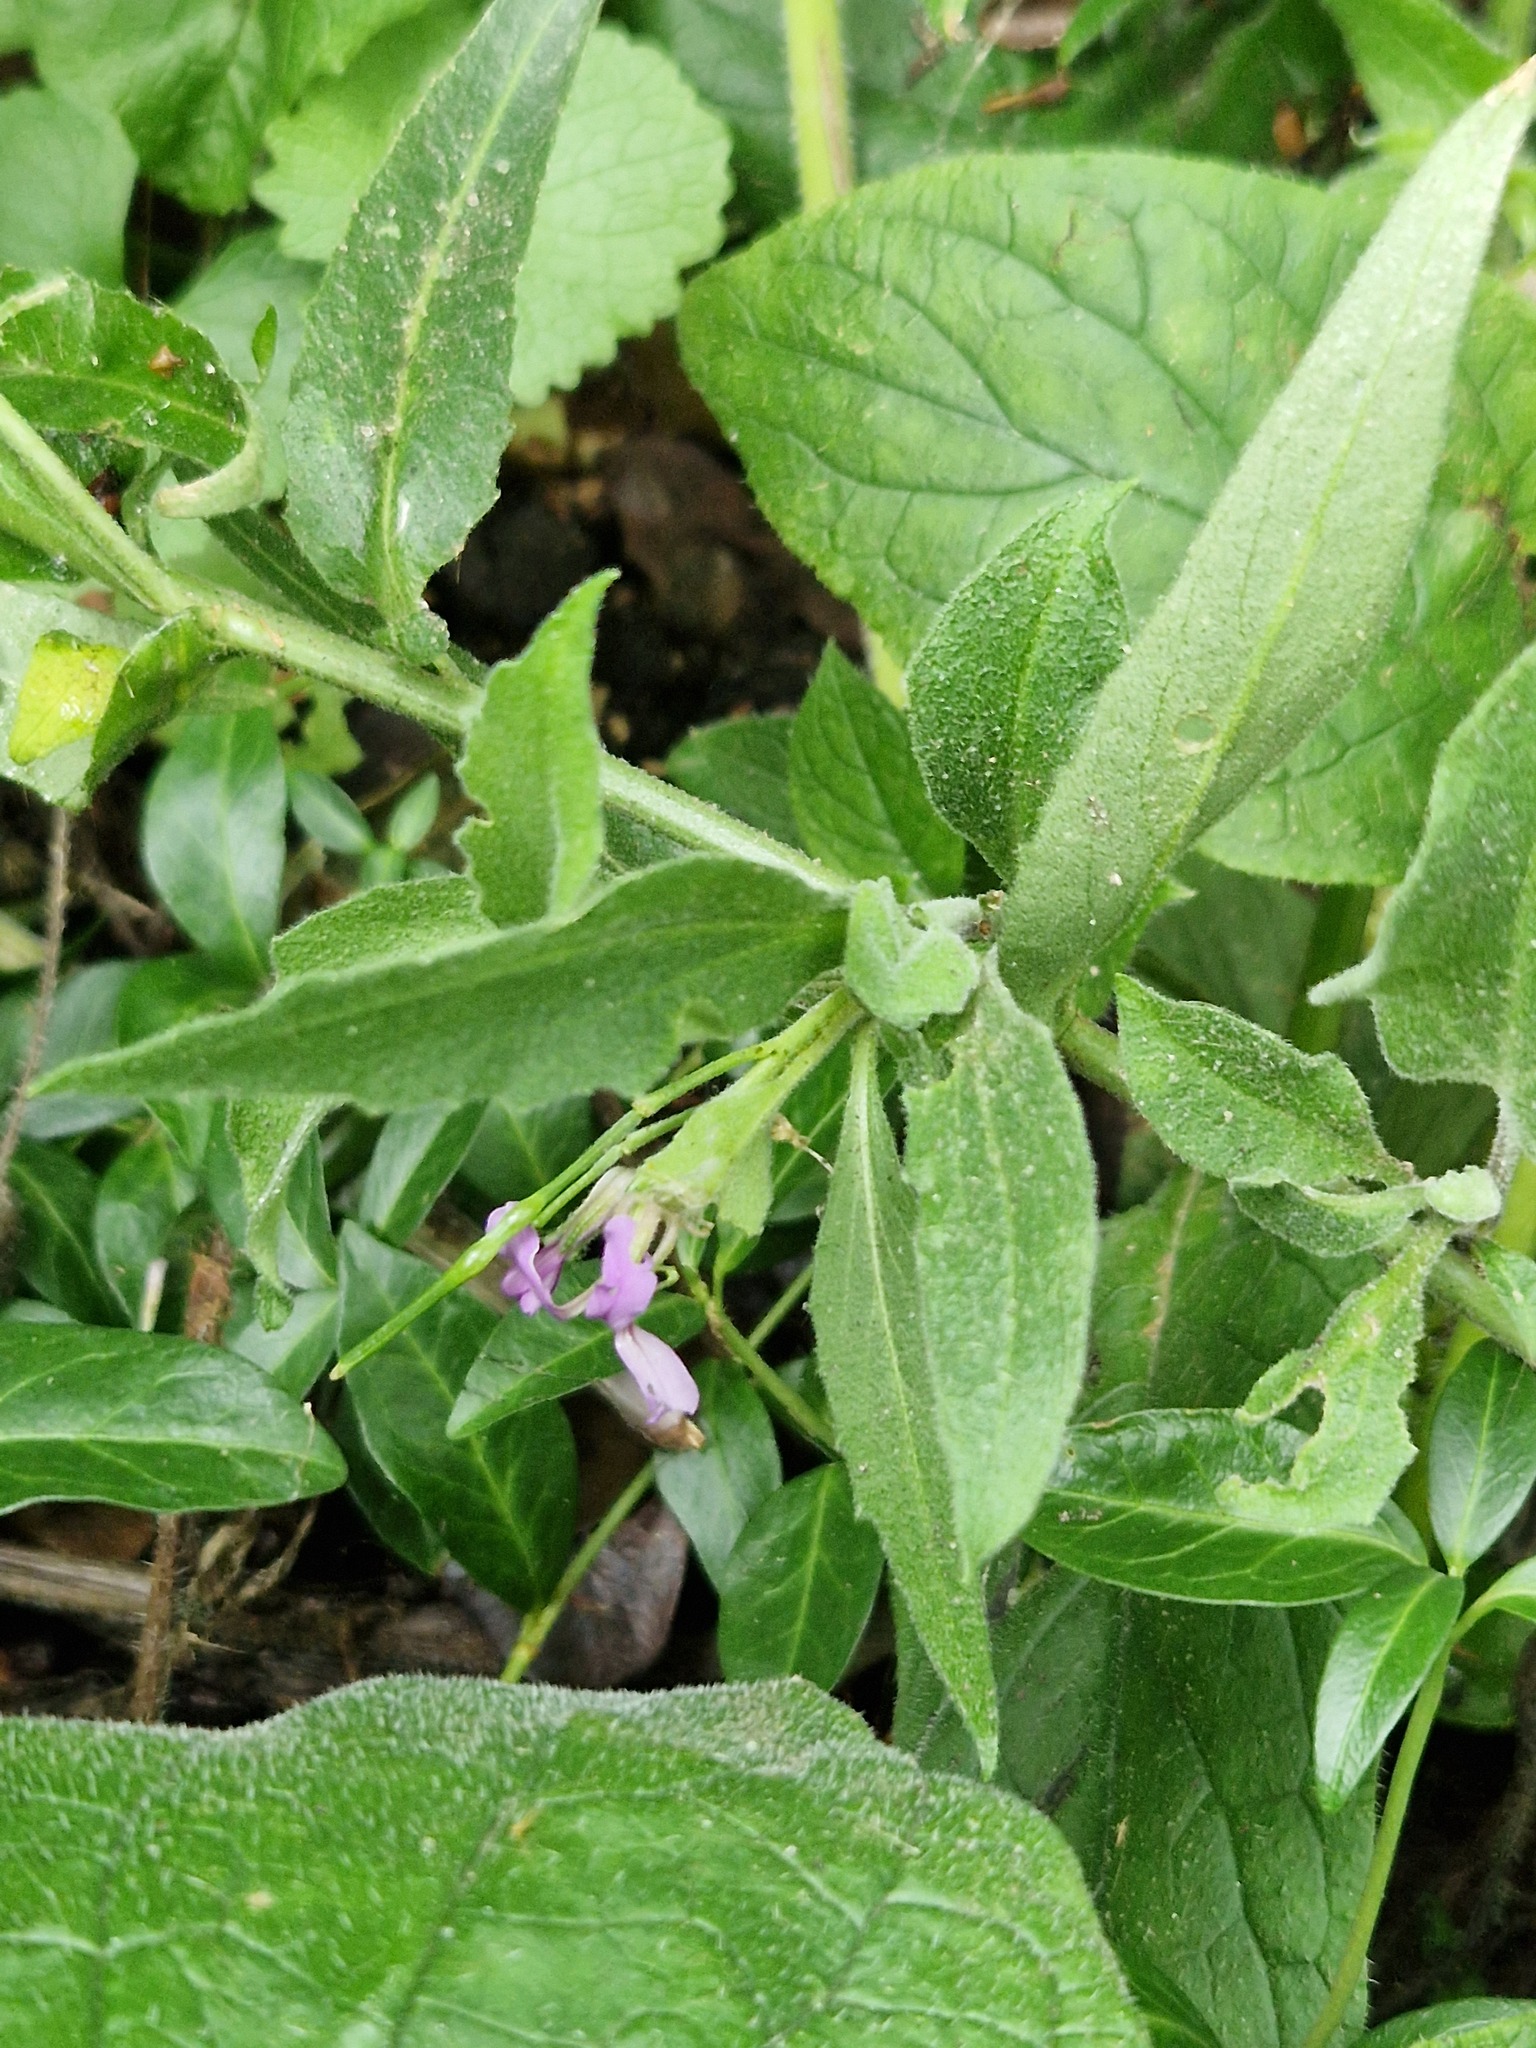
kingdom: Animalia
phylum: Arthropoda
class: Insecta
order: Lepidoptera
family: Plutellidae
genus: Plutella
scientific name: Plutella porrectella
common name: Dame's rocket moth
